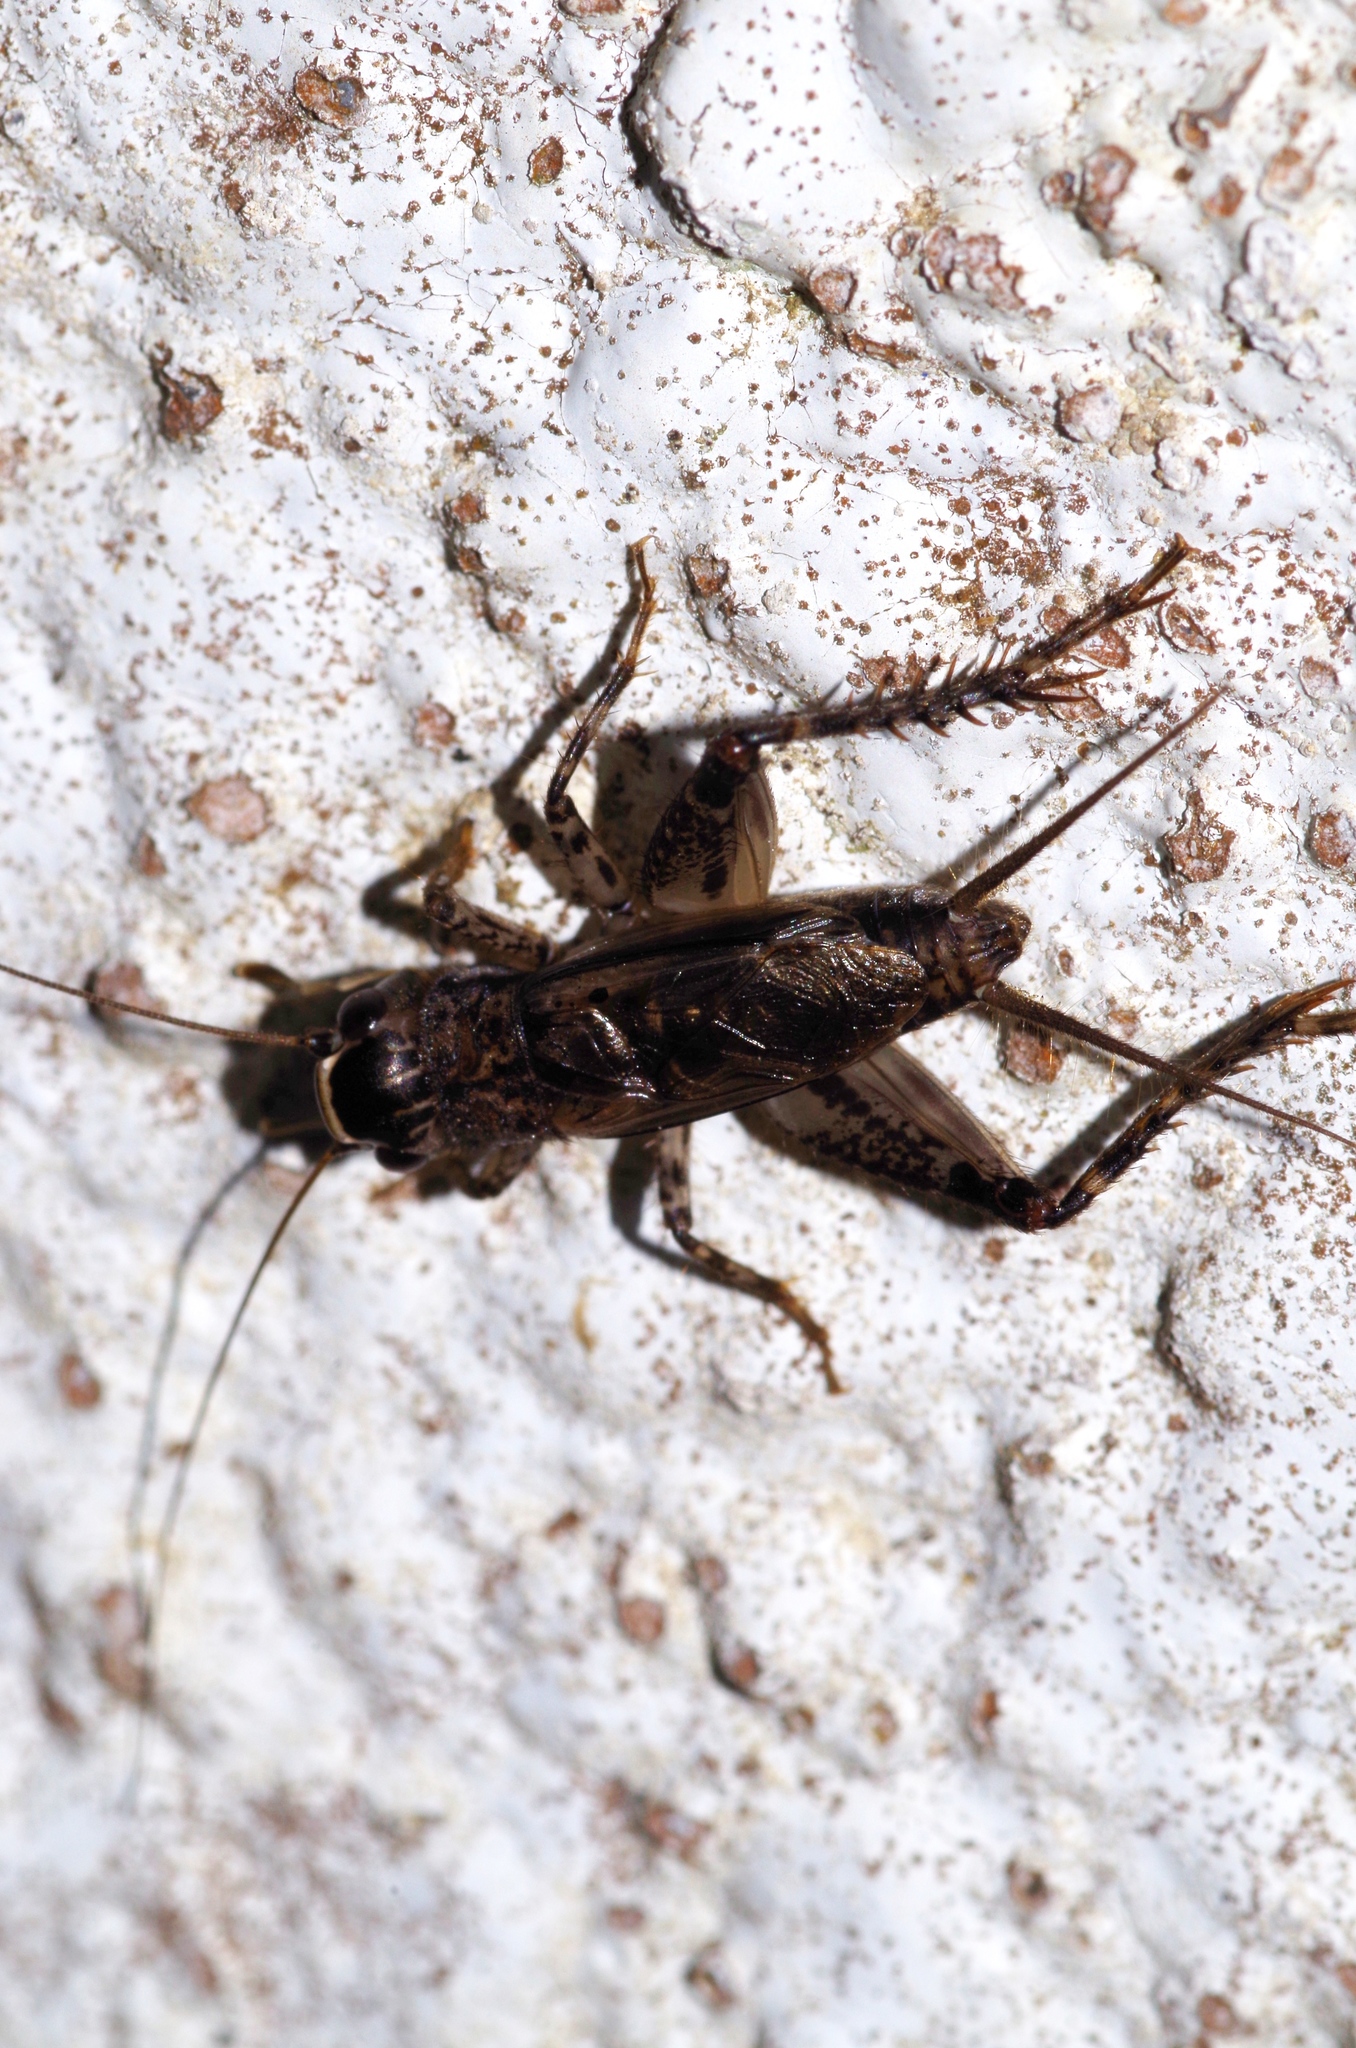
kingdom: Animalia
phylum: Arthropoda
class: Insecta
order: Orthoptera
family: Gryllidae
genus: Loxoblemmus
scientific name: Loxoblemmus equestris
